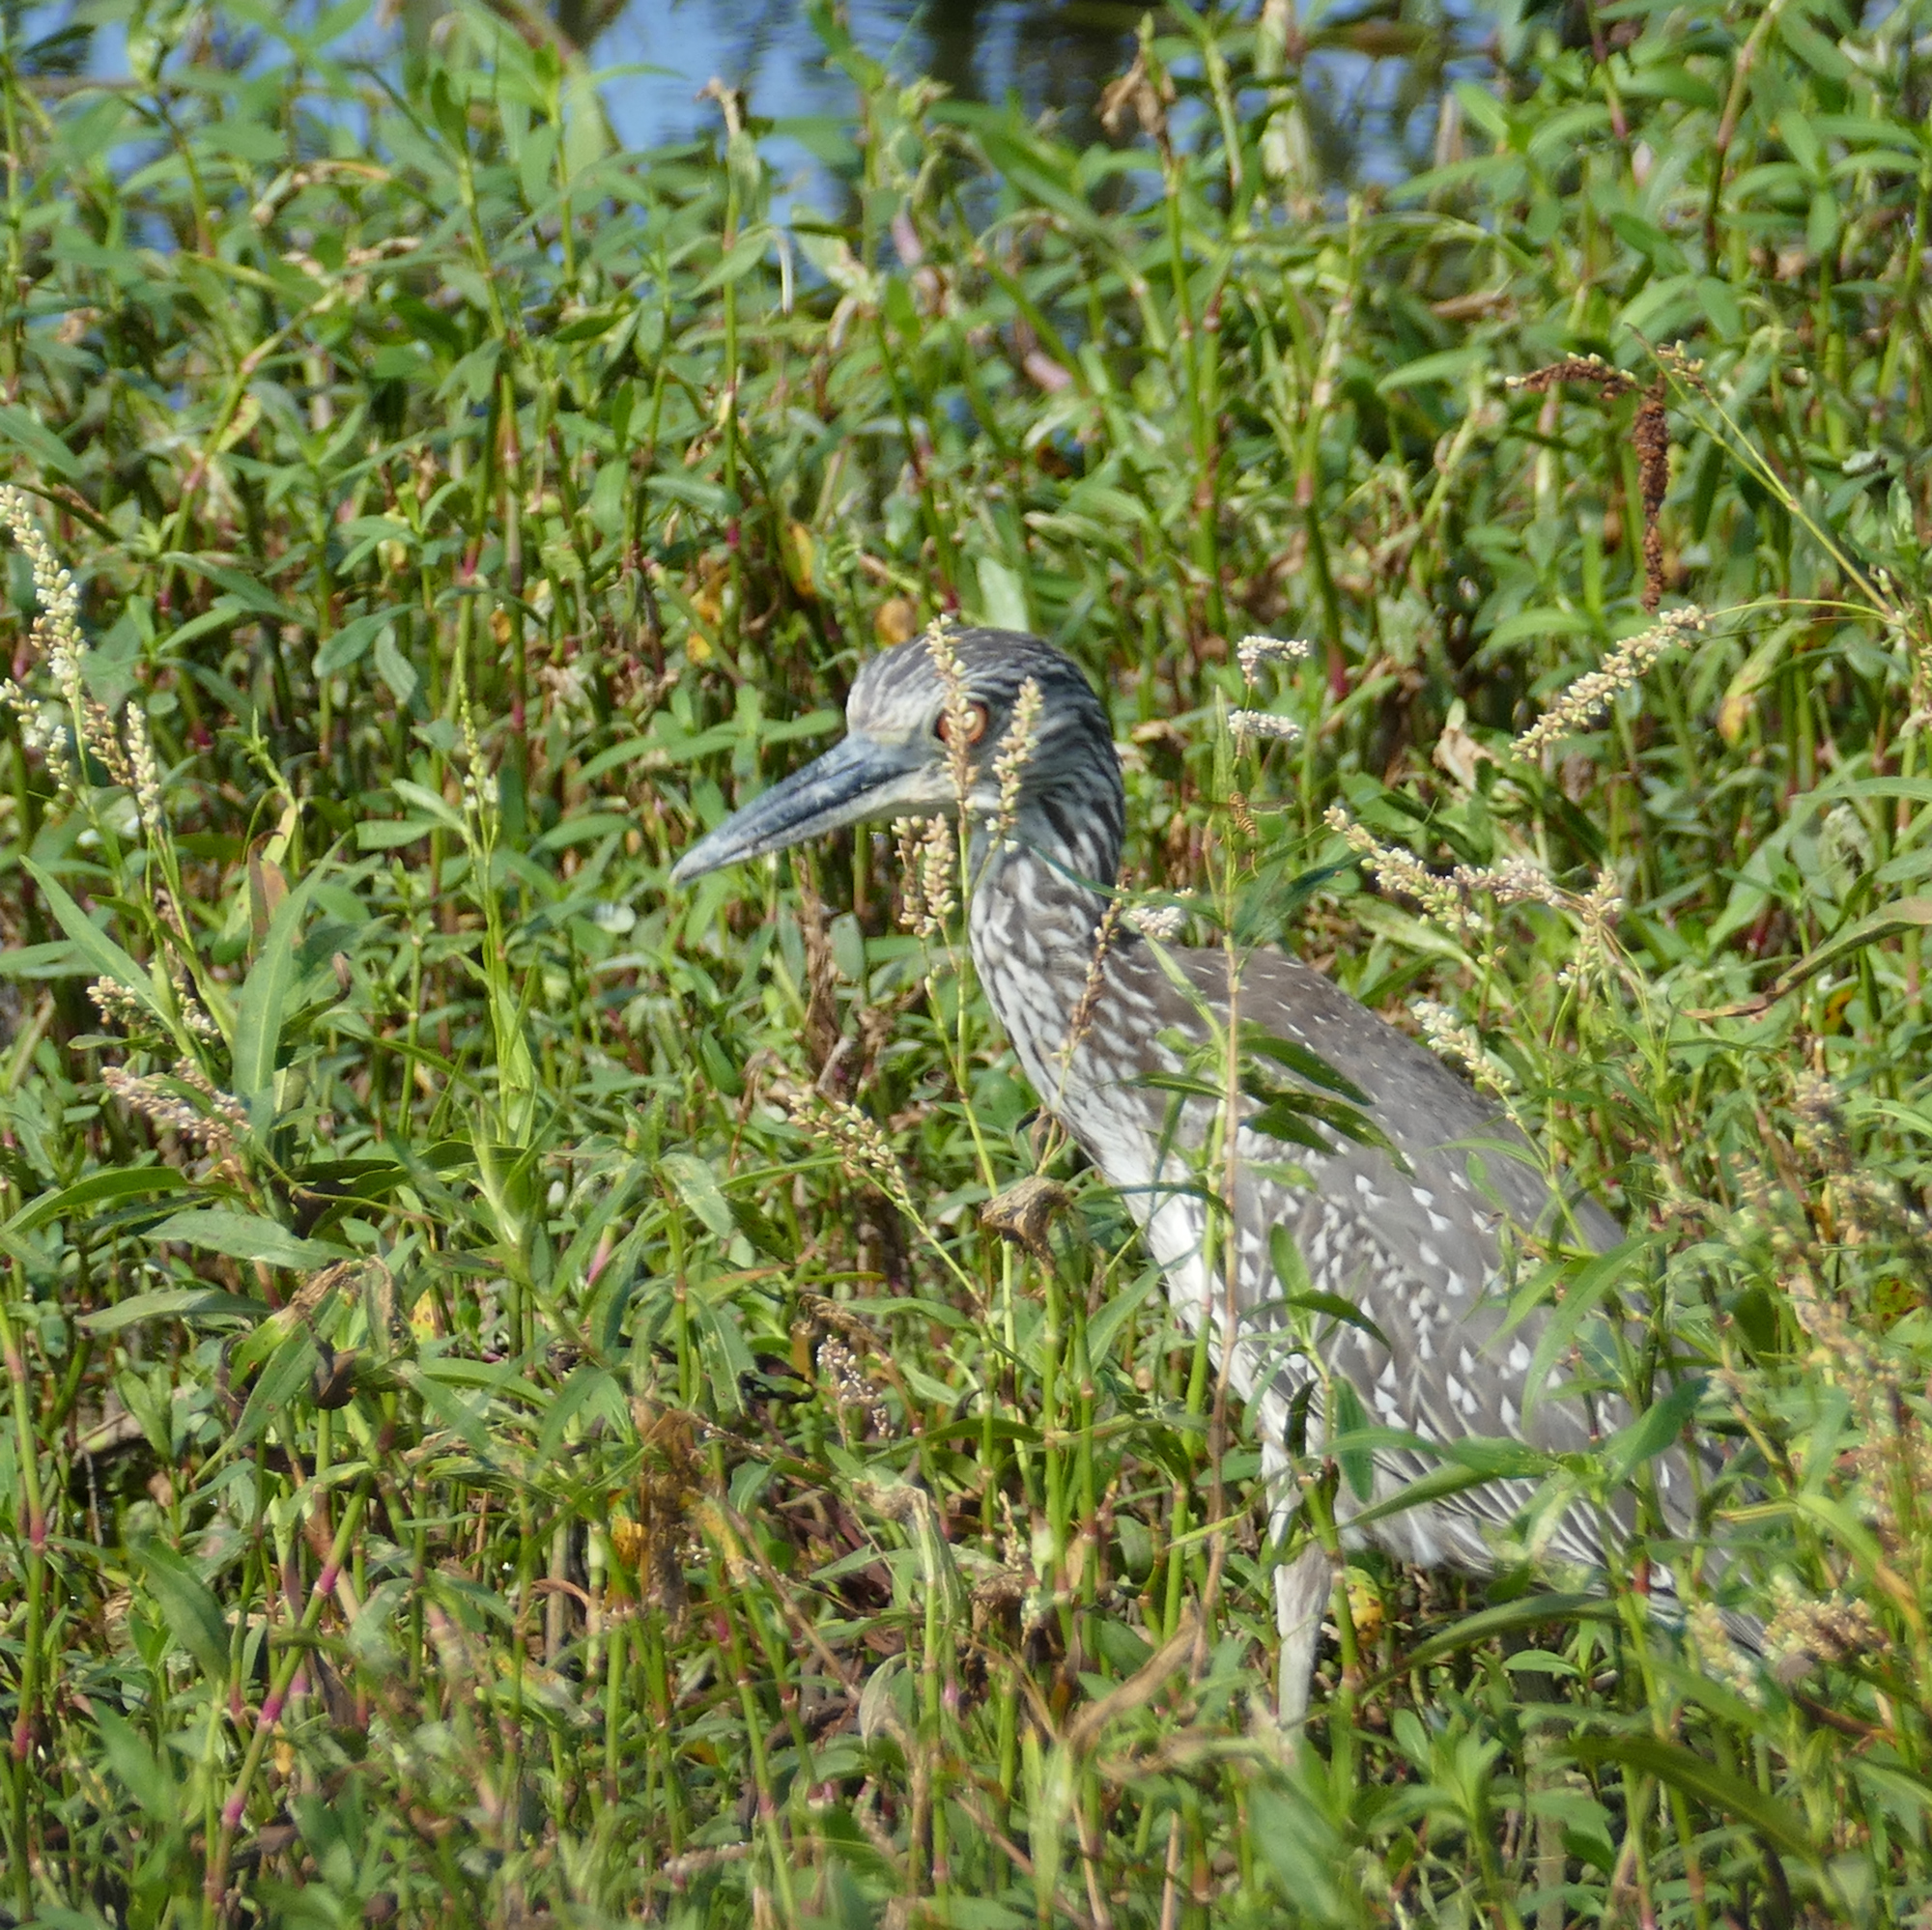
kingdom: Animalia
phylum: Chordata
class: Aves
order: Pelecaniformes
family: Ardeidae
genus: Nyctanassa
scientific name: Nyctanassa violacea
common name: Yellow-crowned night heron
